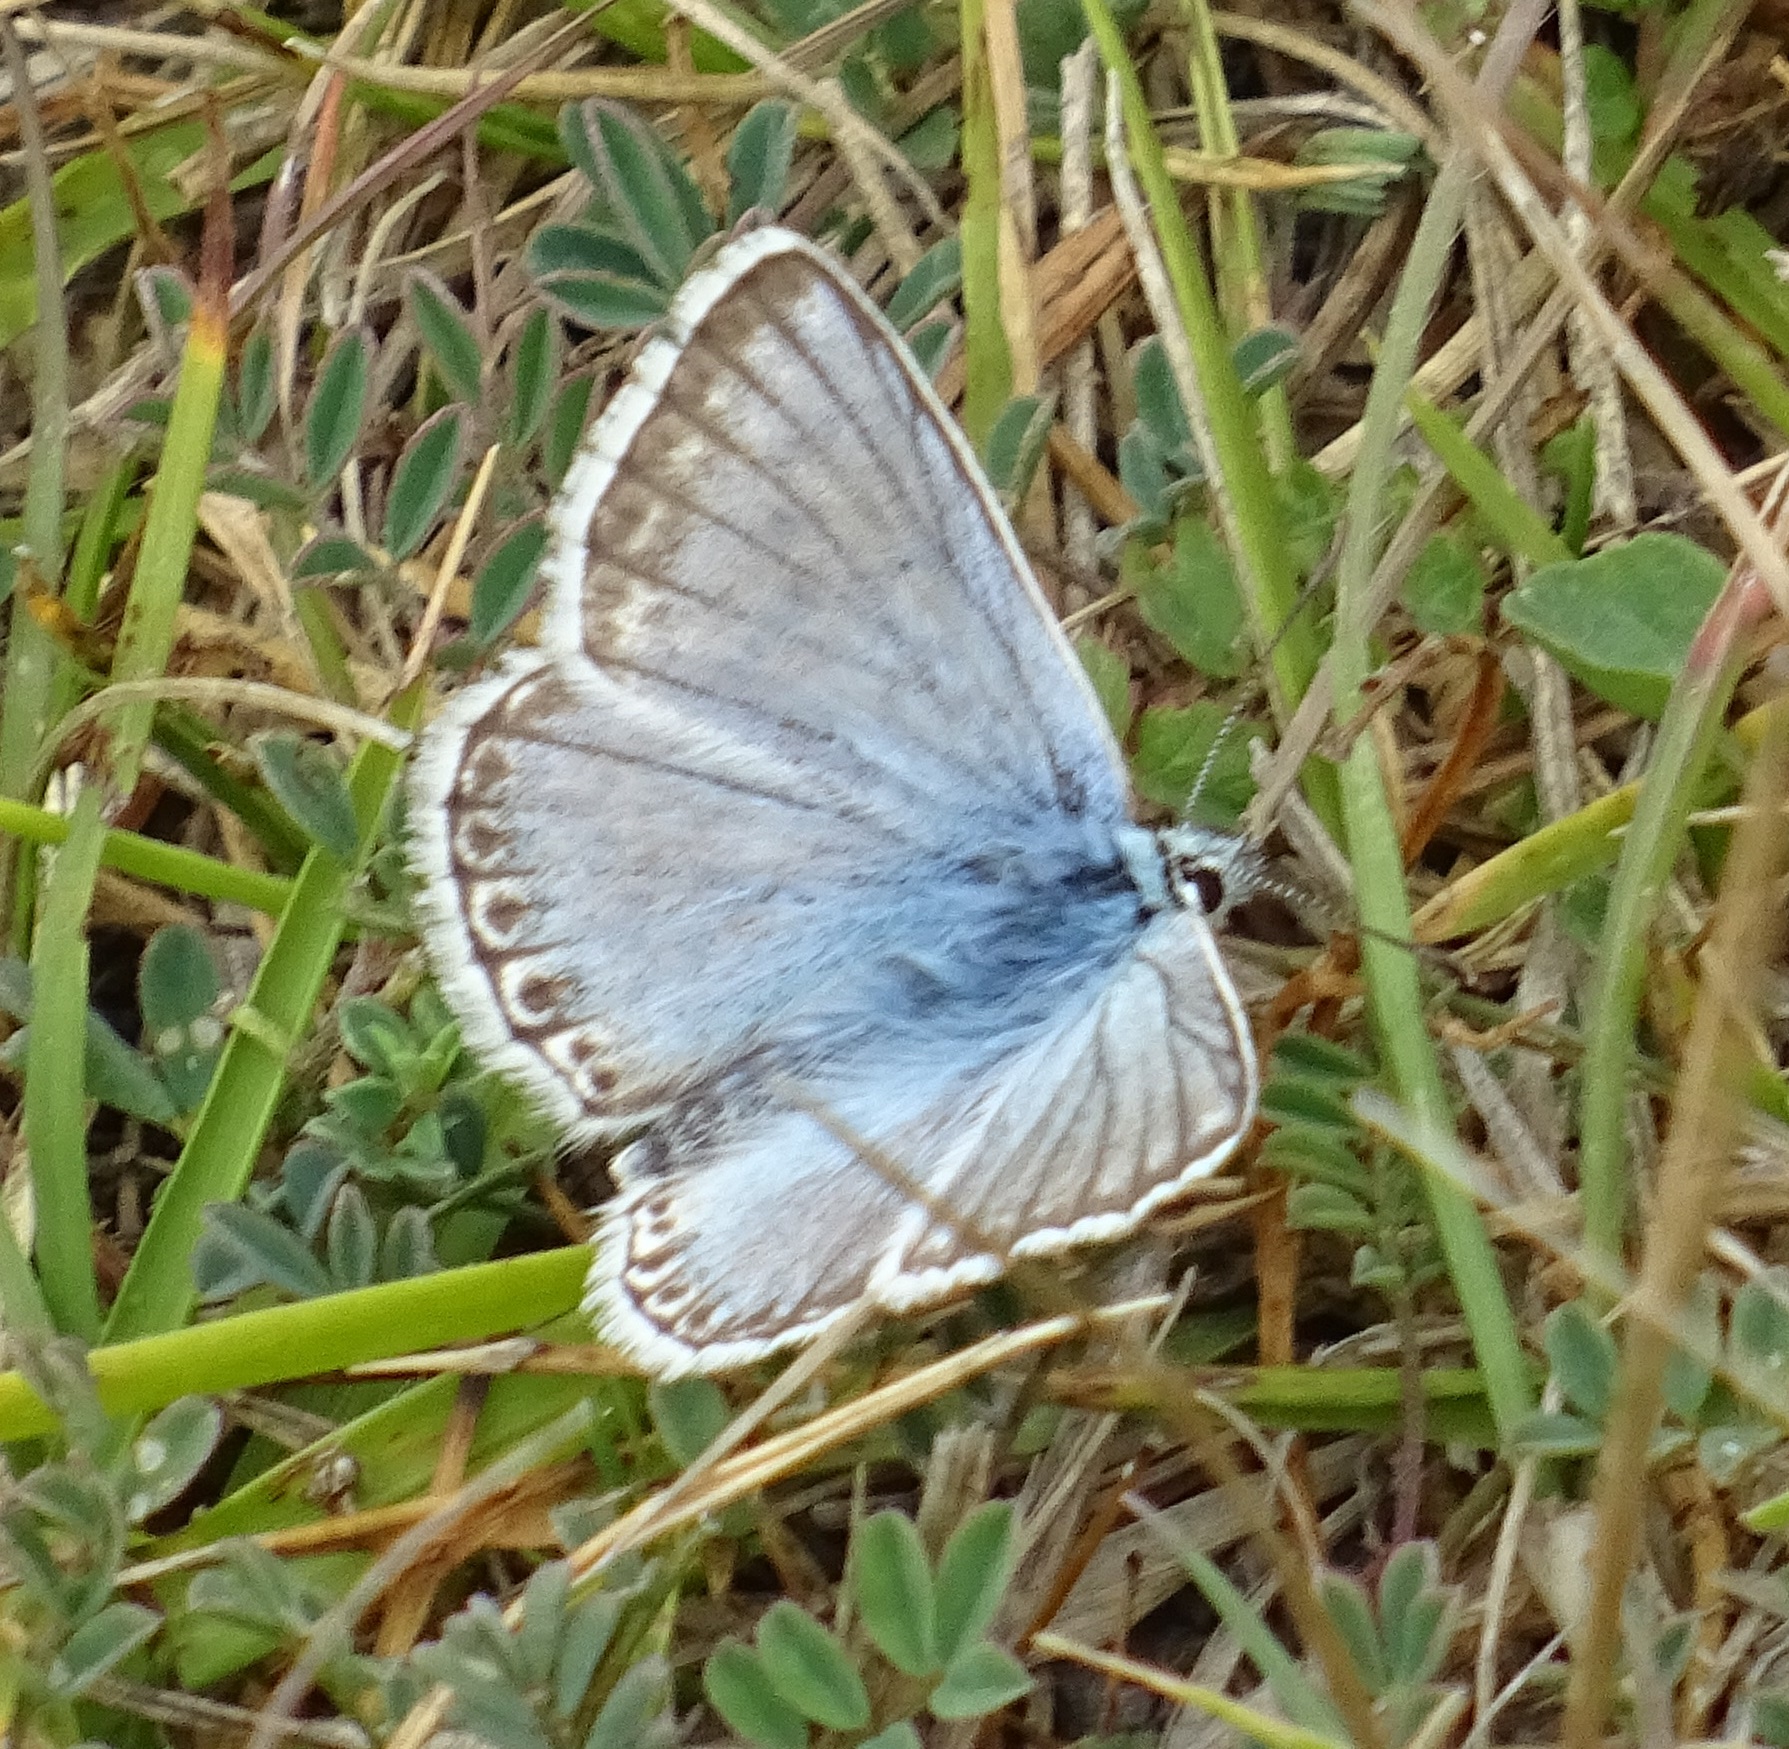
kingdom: Animalia
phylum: Arthropoda
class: Insecta
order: Lepidoptera
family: Lycaenidae
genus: Lysandra
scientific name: Lysandra coridon
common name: Chalkhill blue
